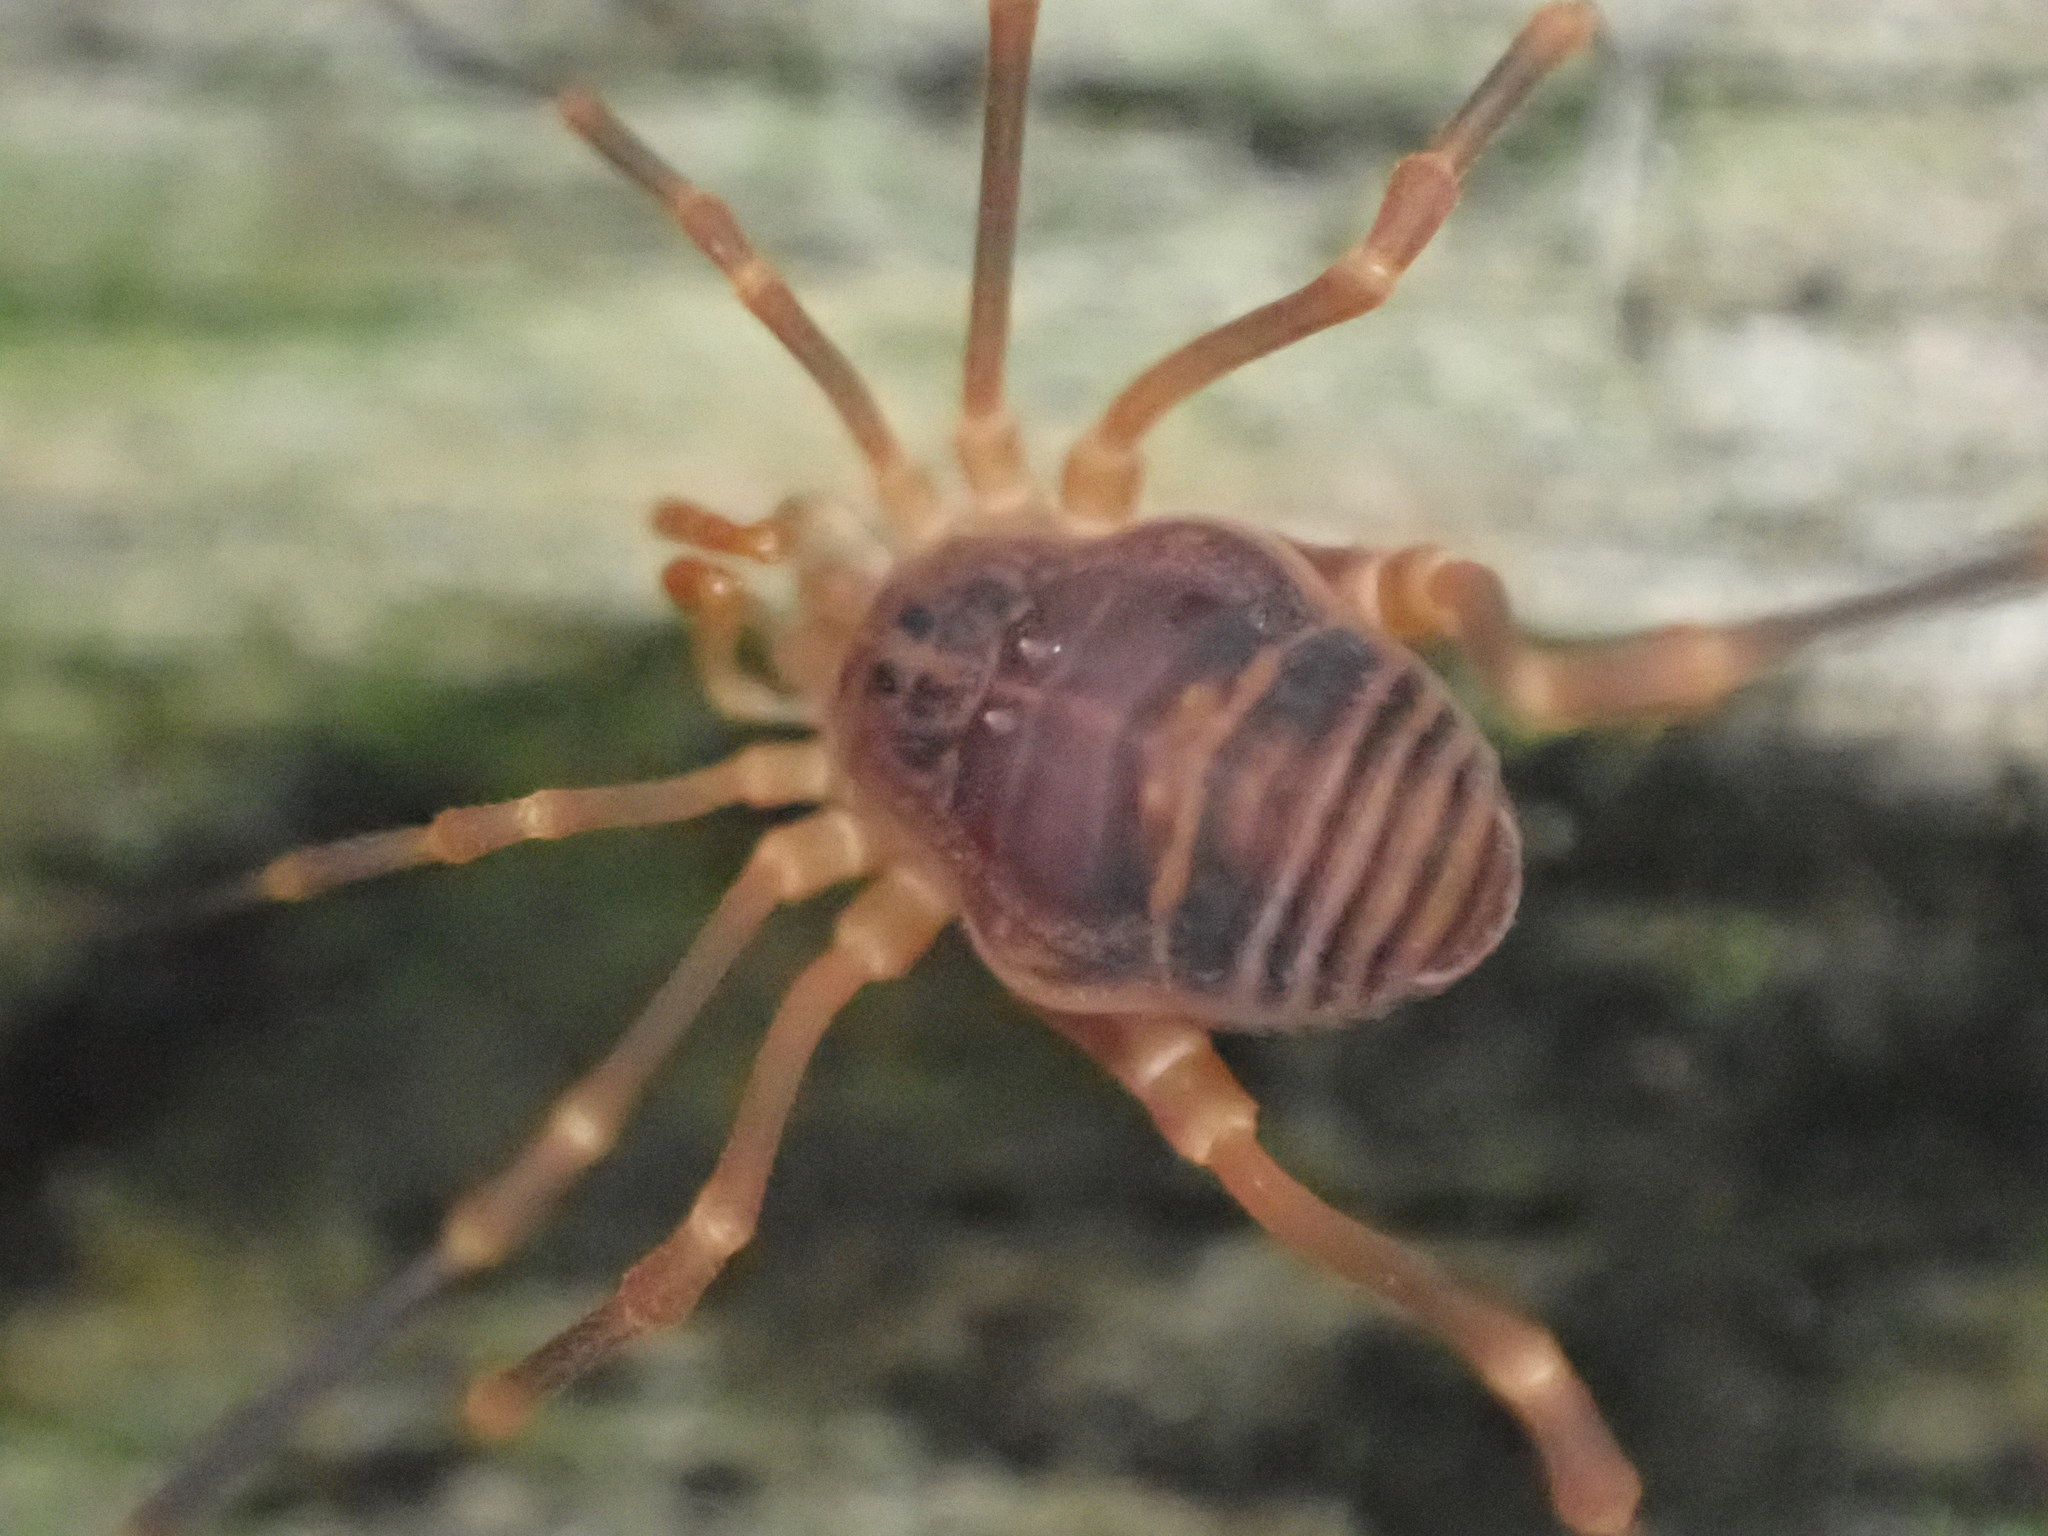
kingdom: Animalia
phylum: Arthropoda
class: Arachnida
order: Opiliones
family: Cosmetidae
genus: Libitioides
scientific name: Libitioides sayi
